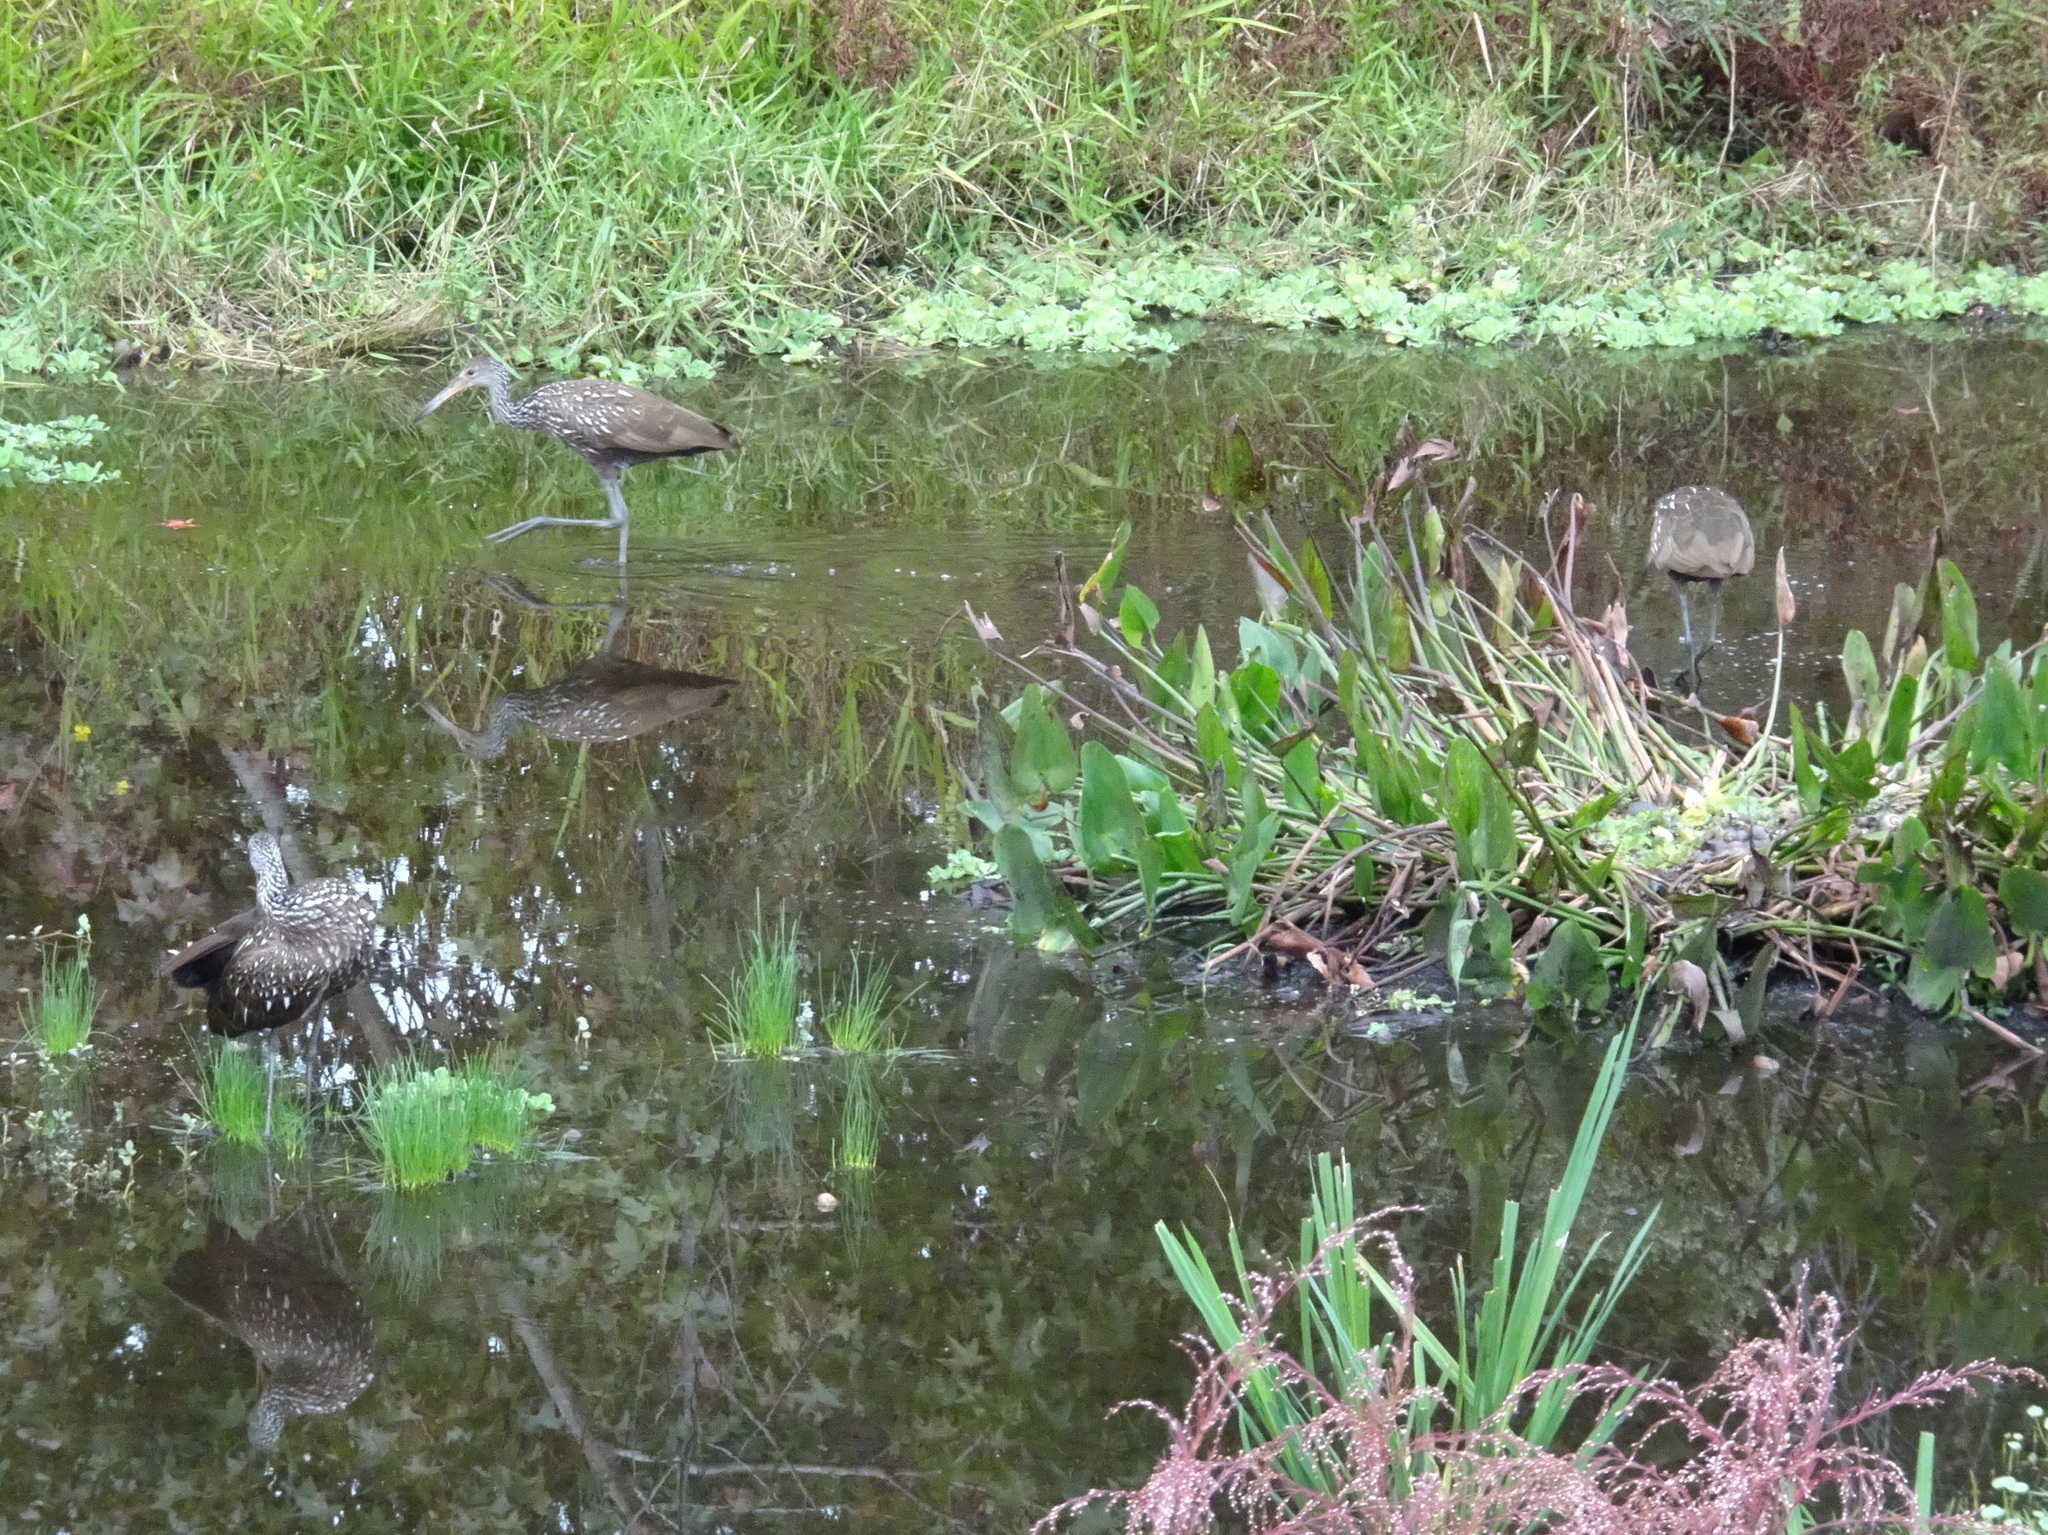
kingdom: Animalia
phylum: Chordata
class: Aves
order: Gruiformes
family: Aramidae
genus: Aramus
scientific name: Aramus guarauna
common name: Limpkin
